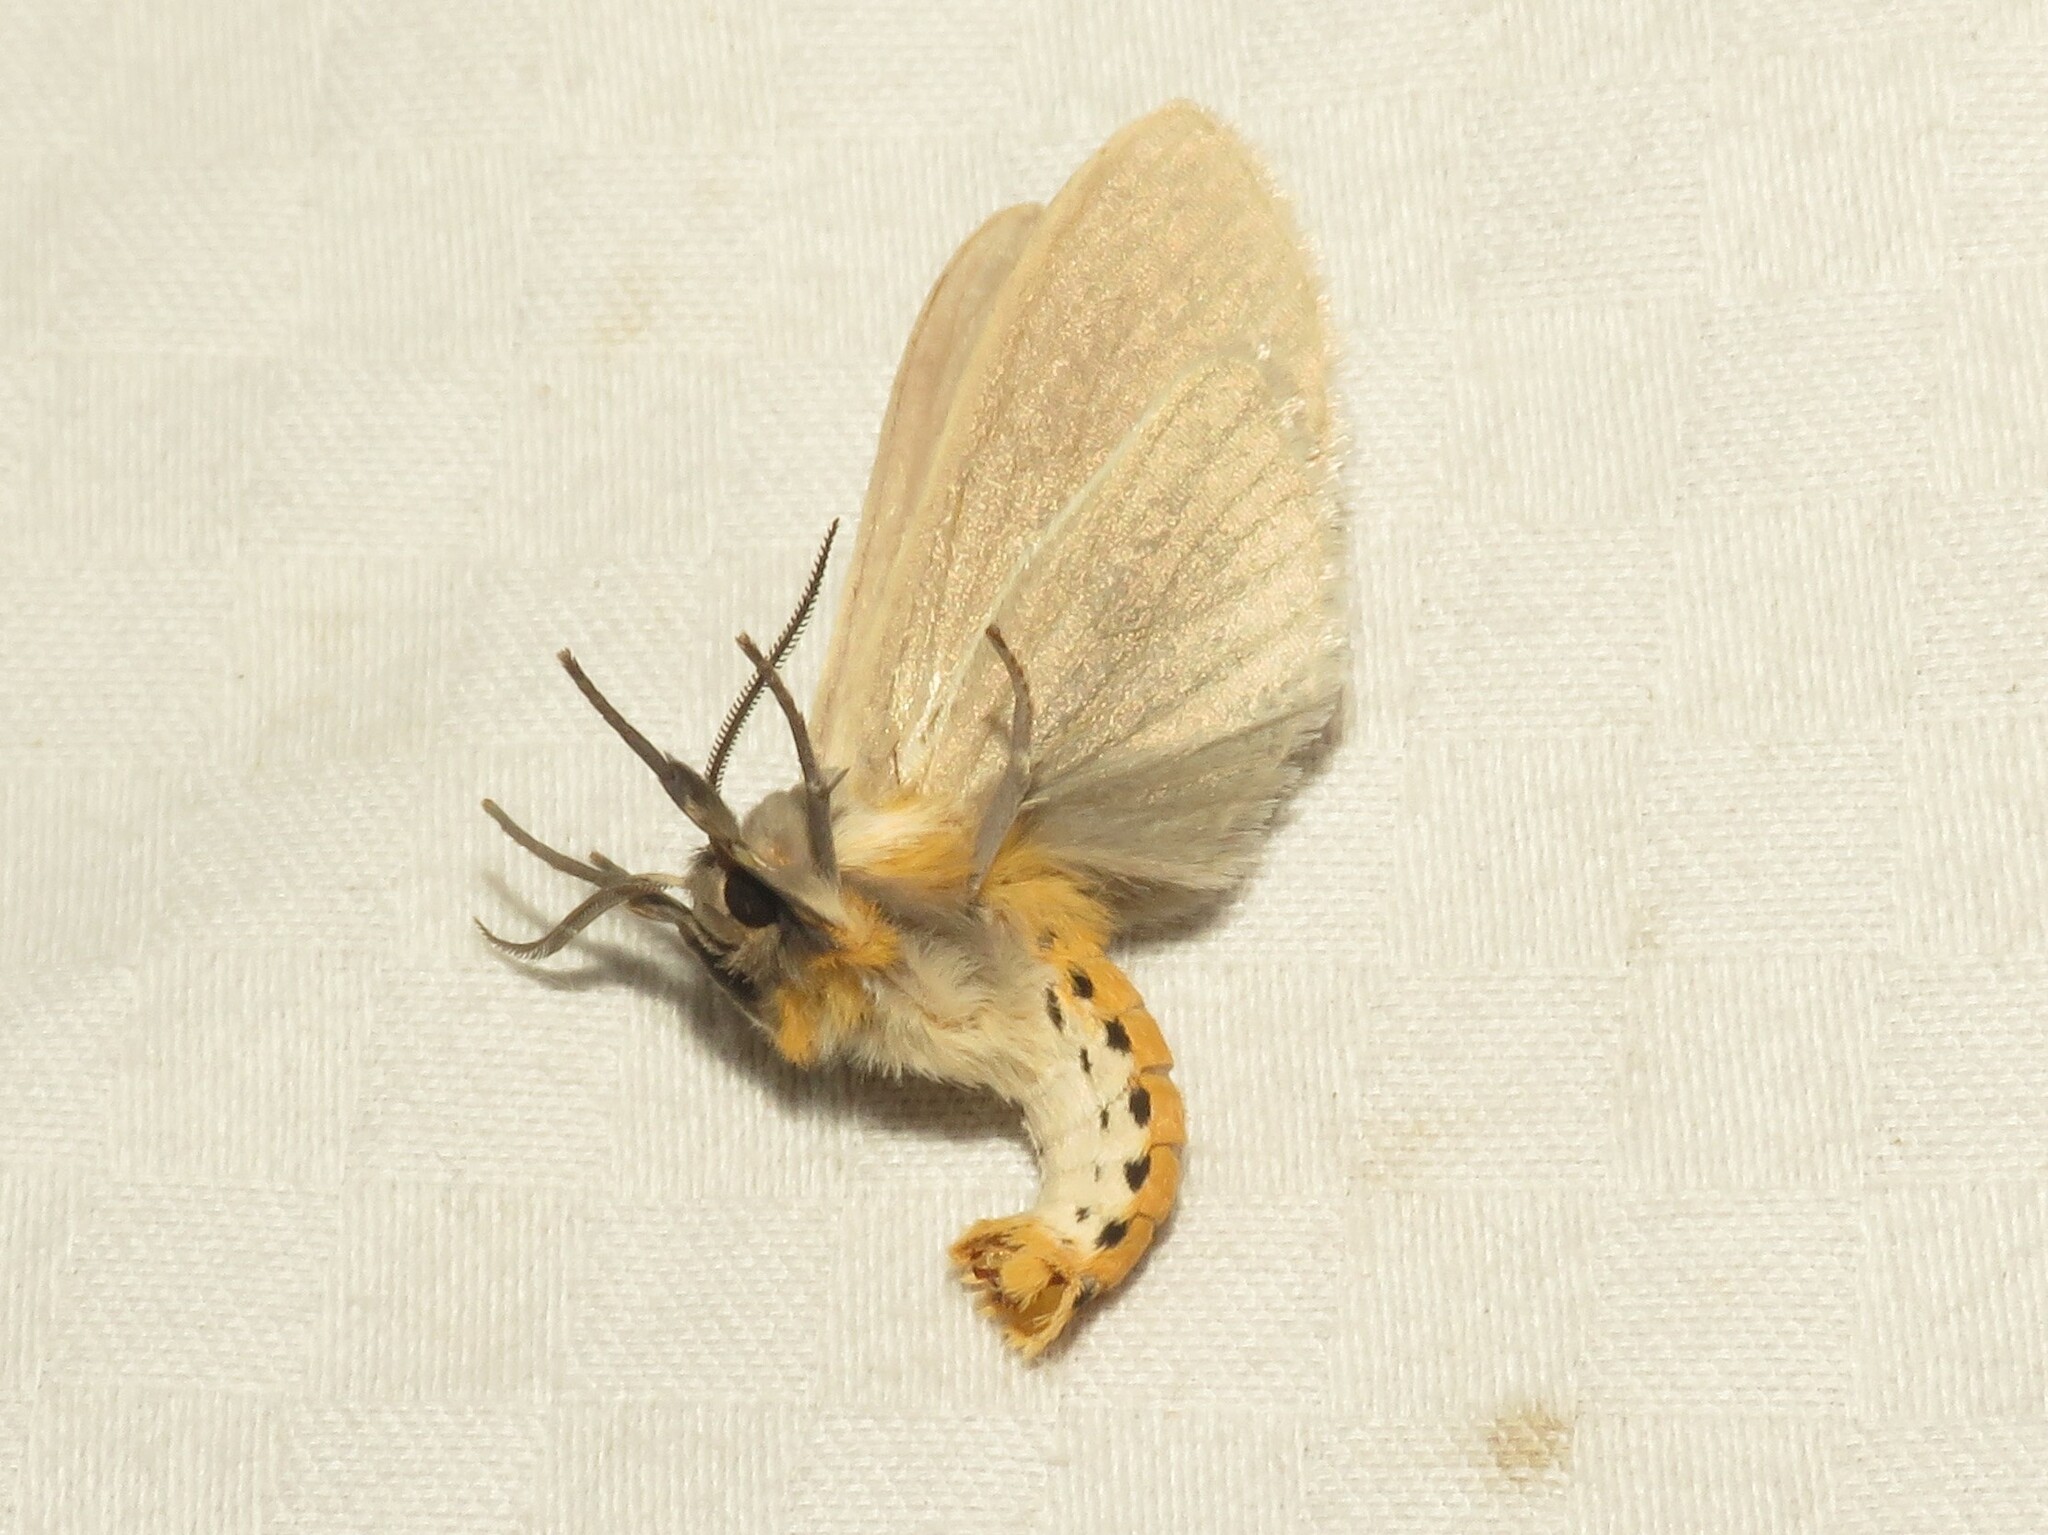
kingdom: Animalia
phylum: Arthropoda
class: Insecta
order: Lepidoptera
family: Erebidae
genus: Euchaetes
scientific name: Euchaetes egle
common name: Milkweed tussock moth
